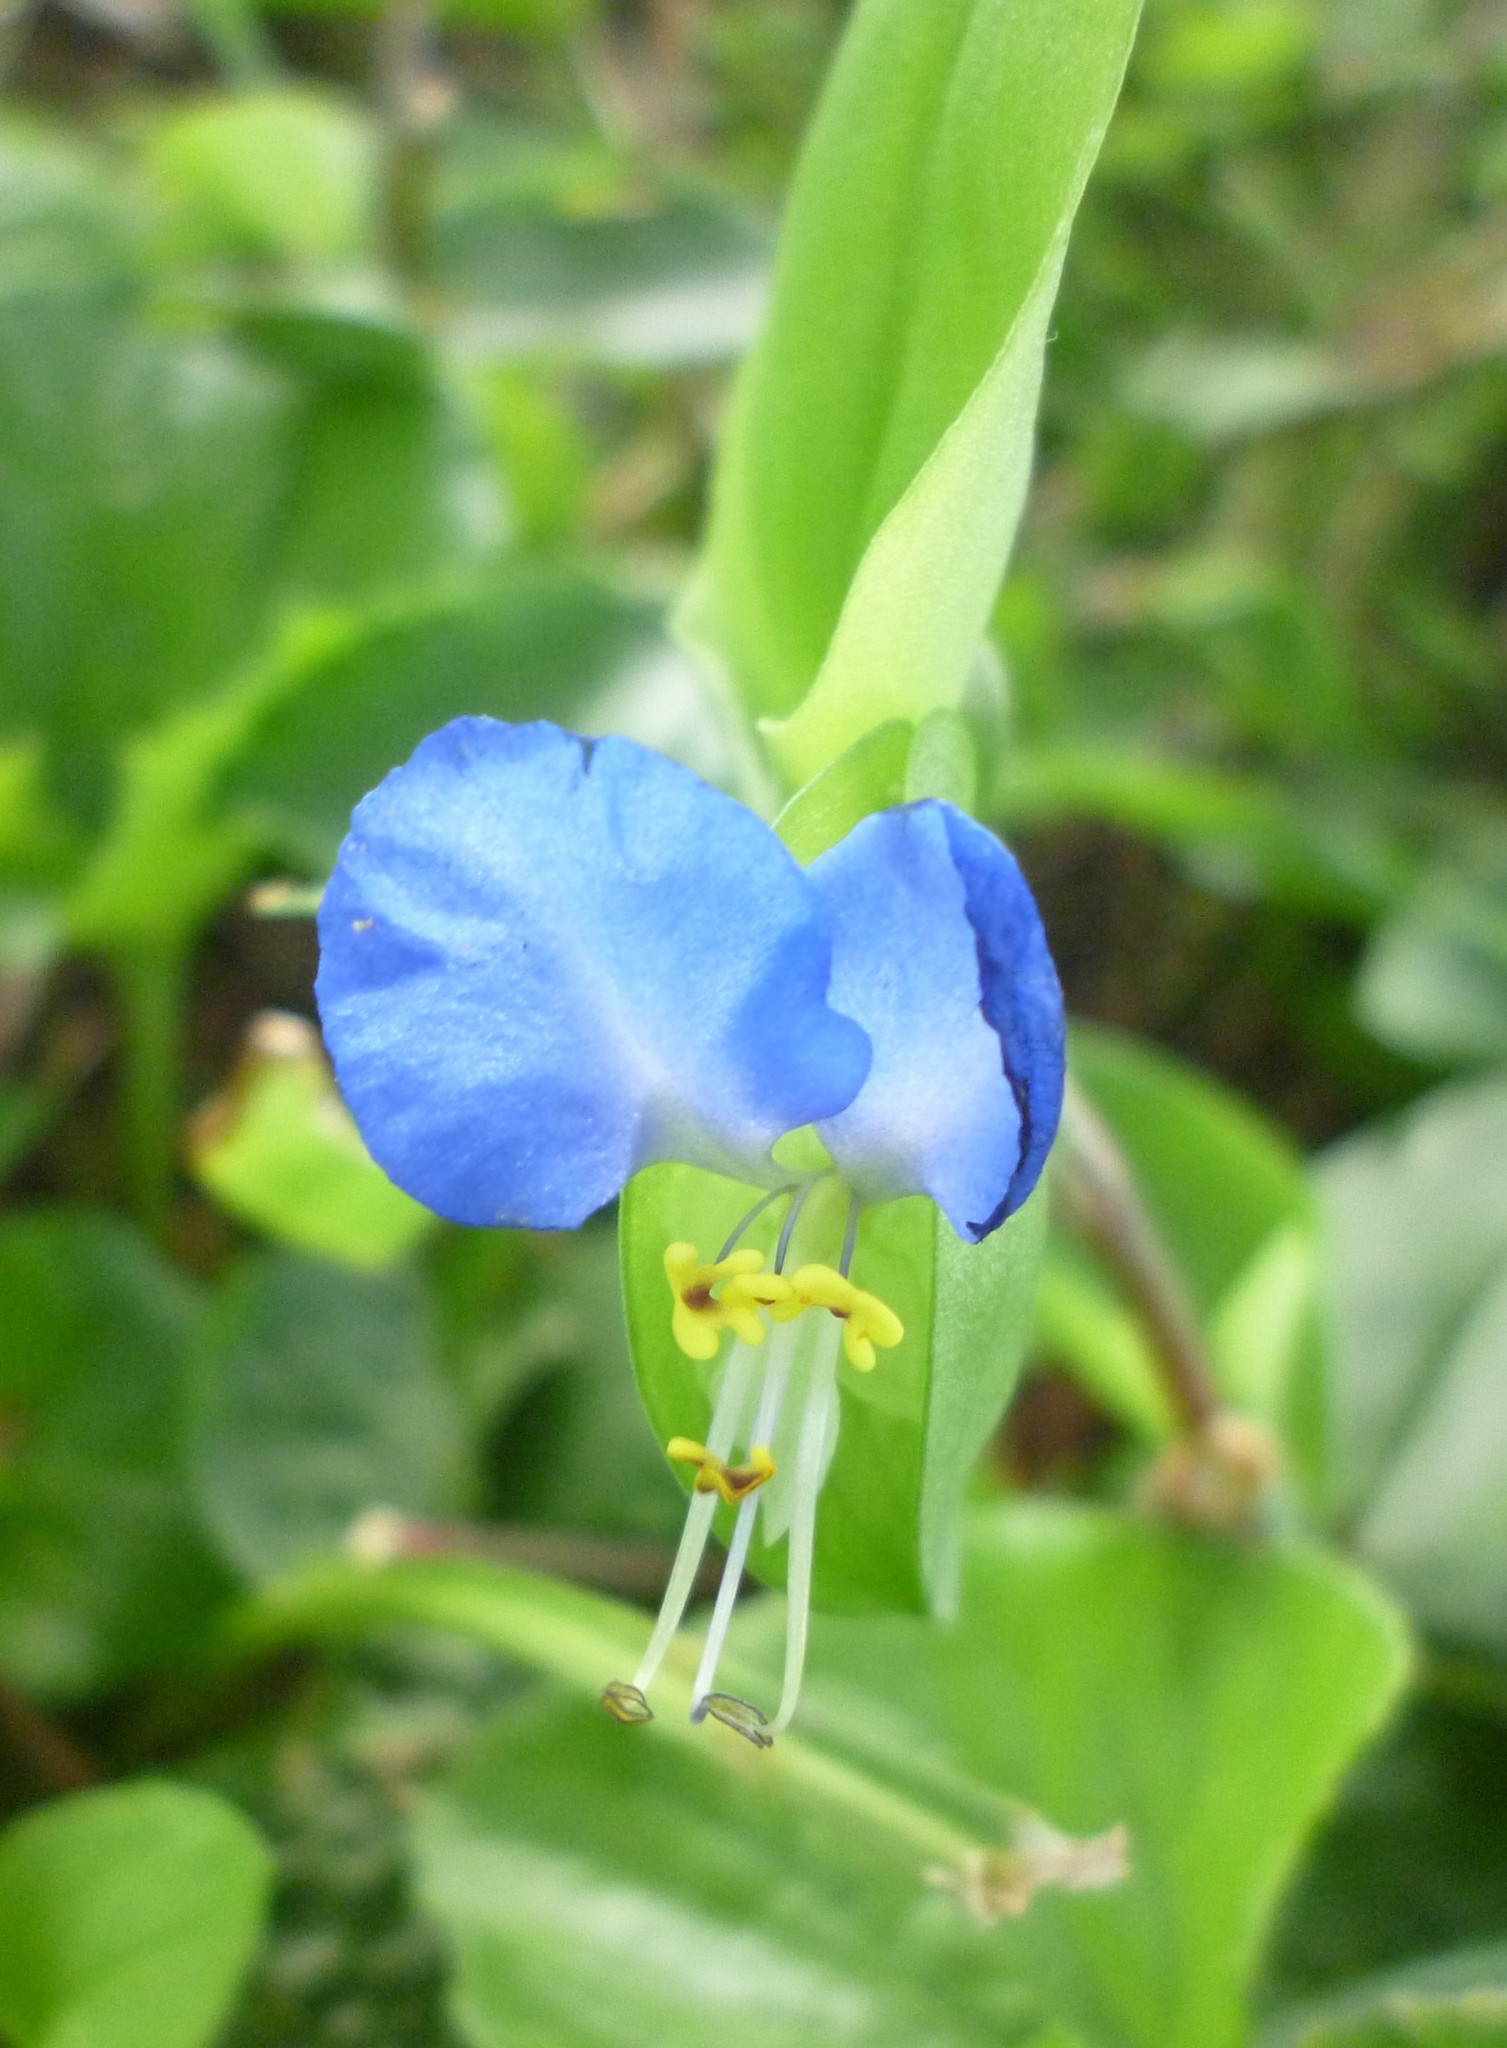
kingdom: Plantae
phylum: Tracheophyta
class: Liliopsida
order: Commelinales
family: Commelinaceae
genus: Commelina
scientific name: Commelina communis
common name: Asiatic dayflower
